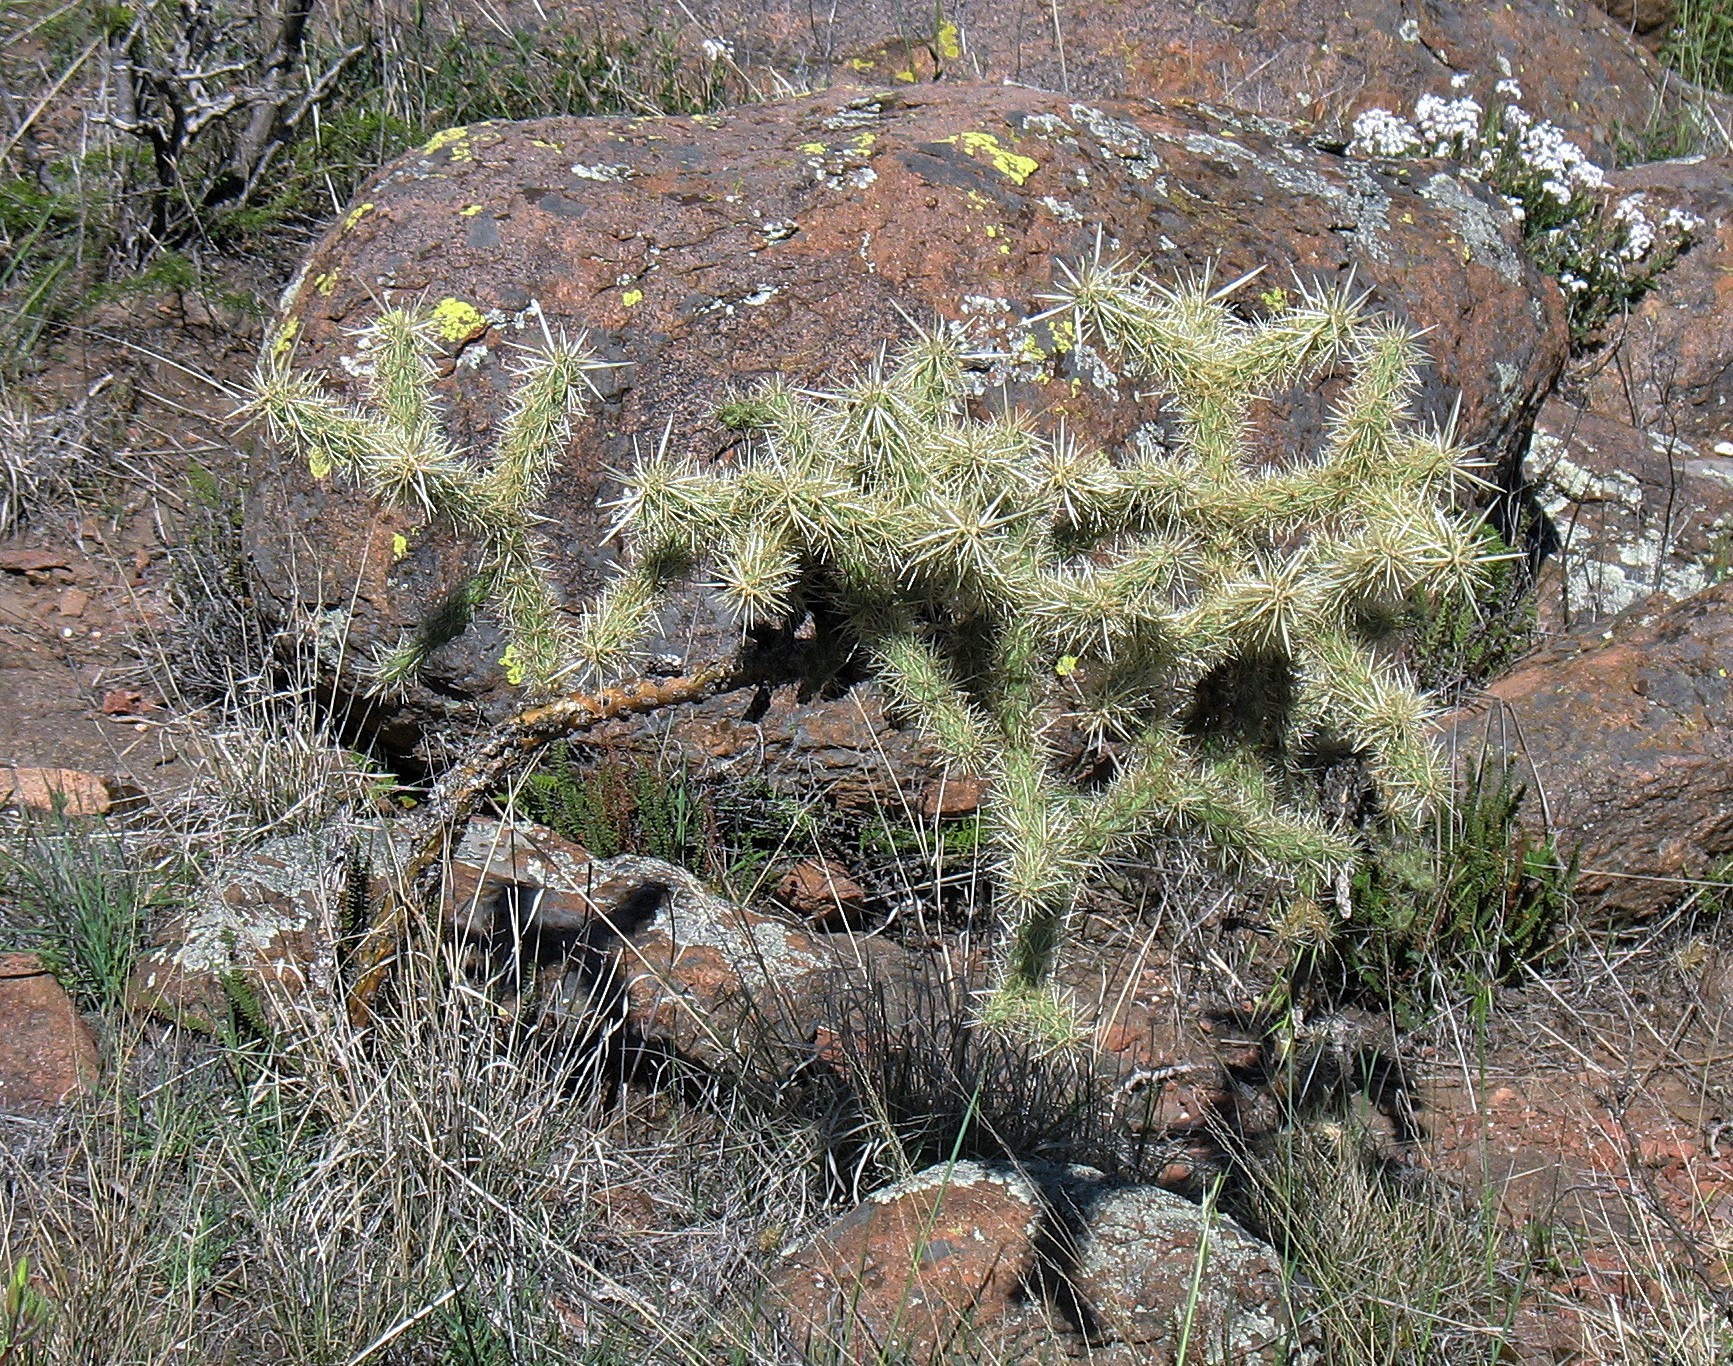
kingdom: Plantae
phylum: Tracheophyta
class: Magnoliopsida
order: Caryophyllales
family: Cactaceae
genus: Cylindropuntia
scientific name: Cylindropuntia tunicata
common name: Sheathed cholla
